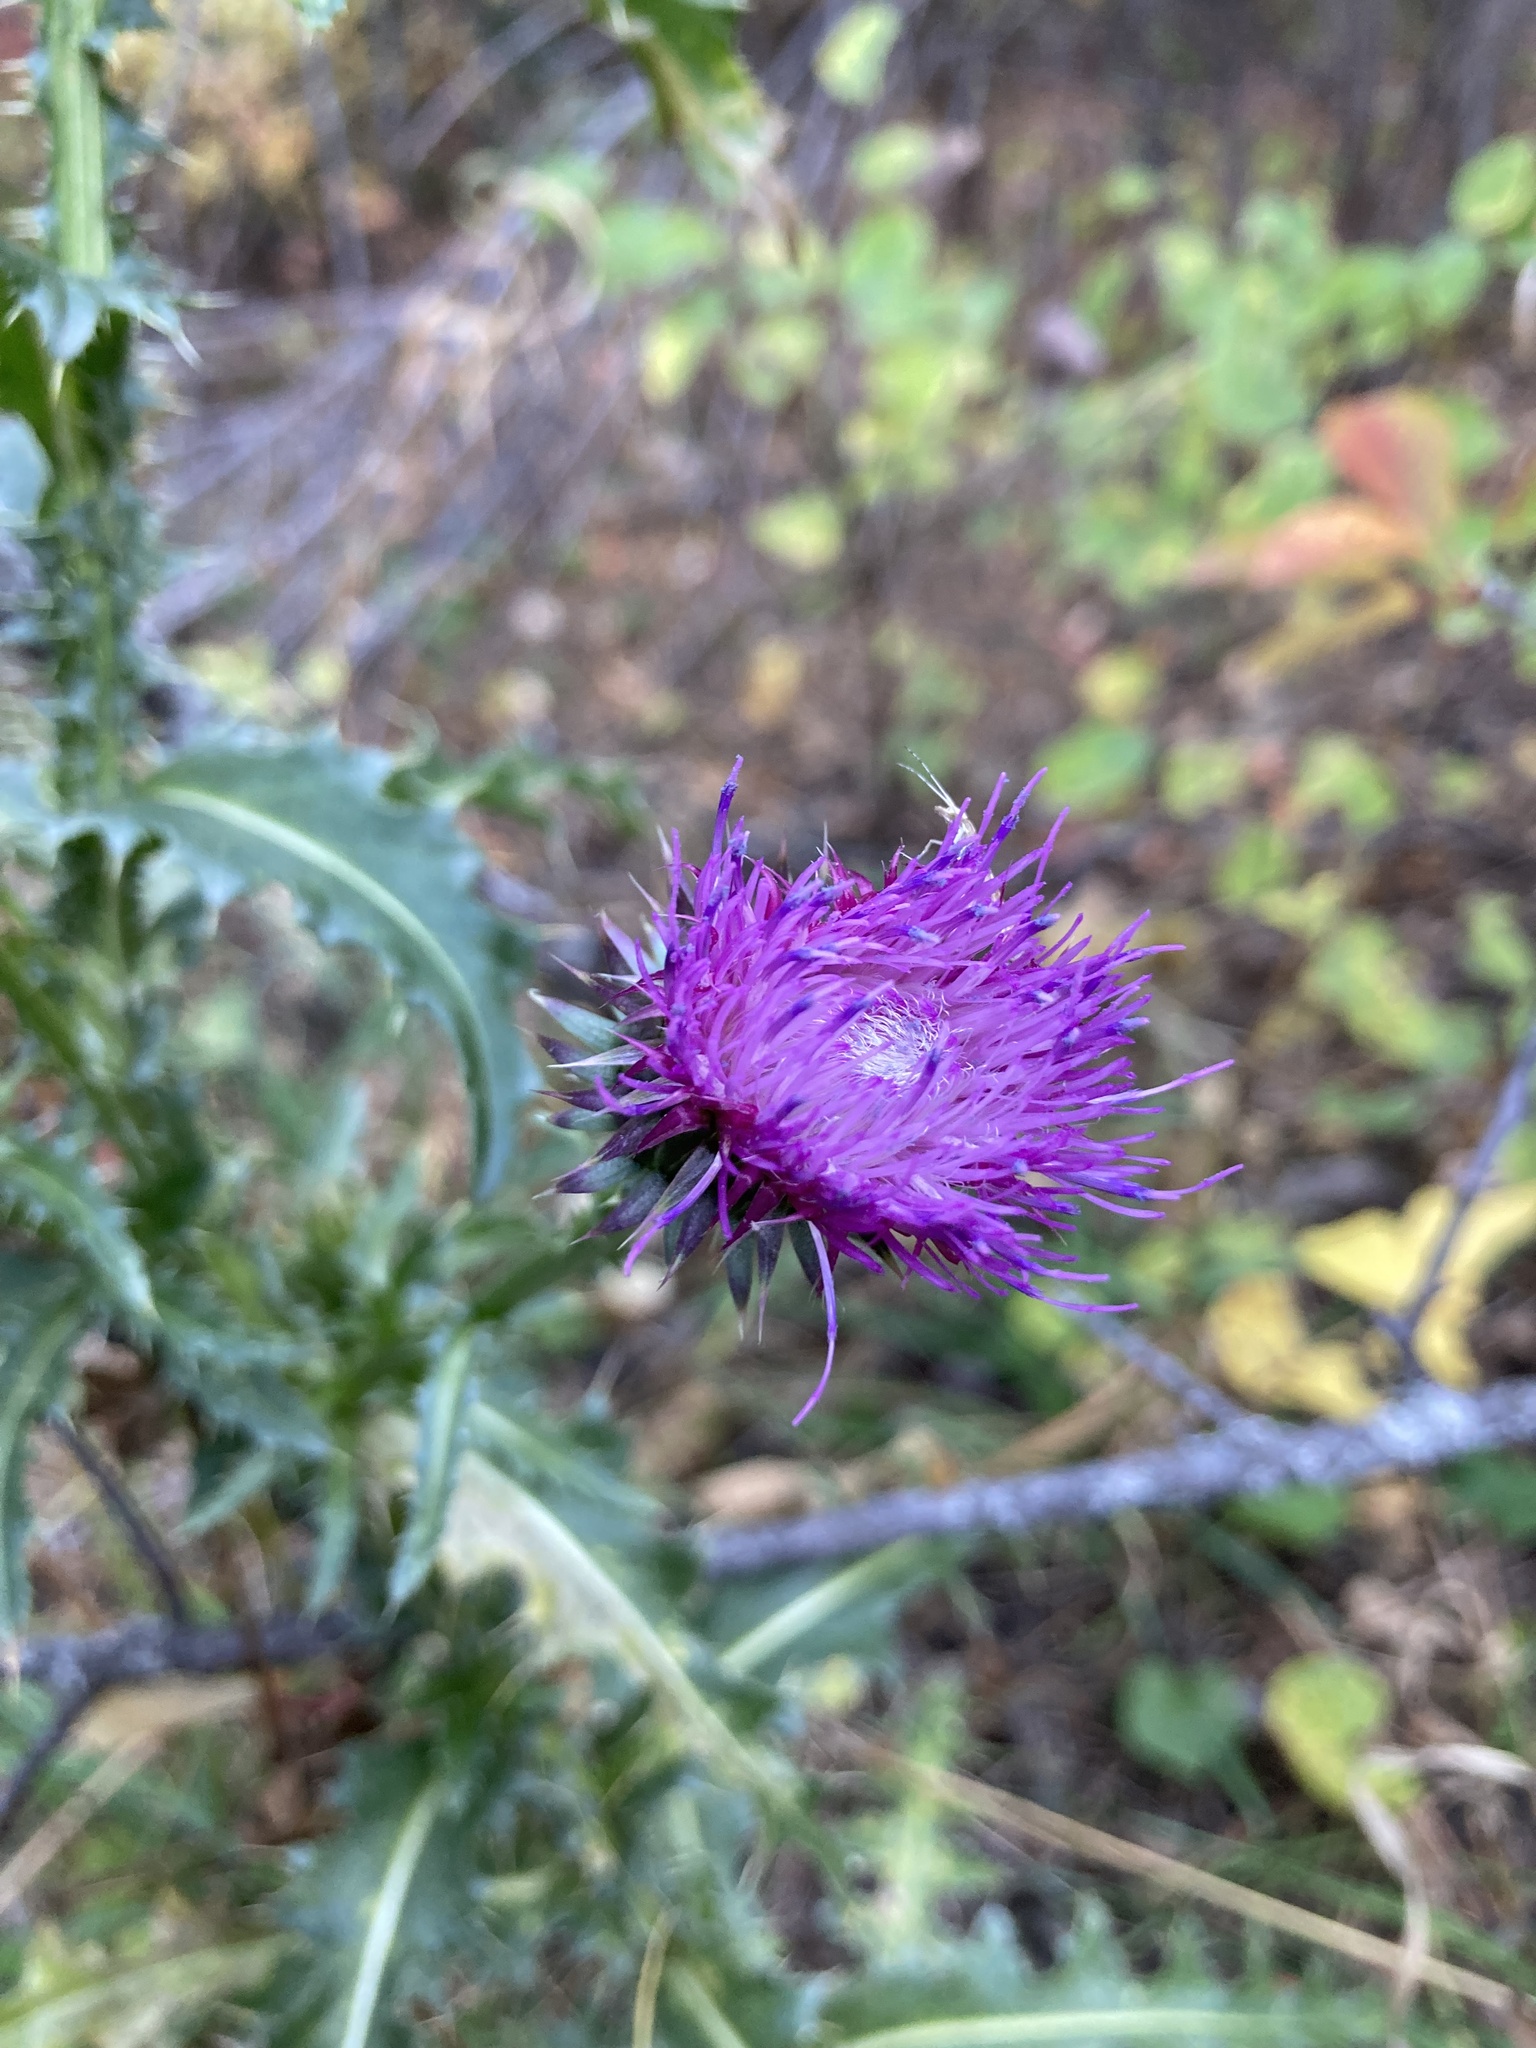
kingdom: Plantae
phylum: Tracheophyta
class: Magnoliopsida
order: Asterales
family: Asteraceae
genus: Carduus
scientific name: Carduus nutans
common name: Musk thistle
